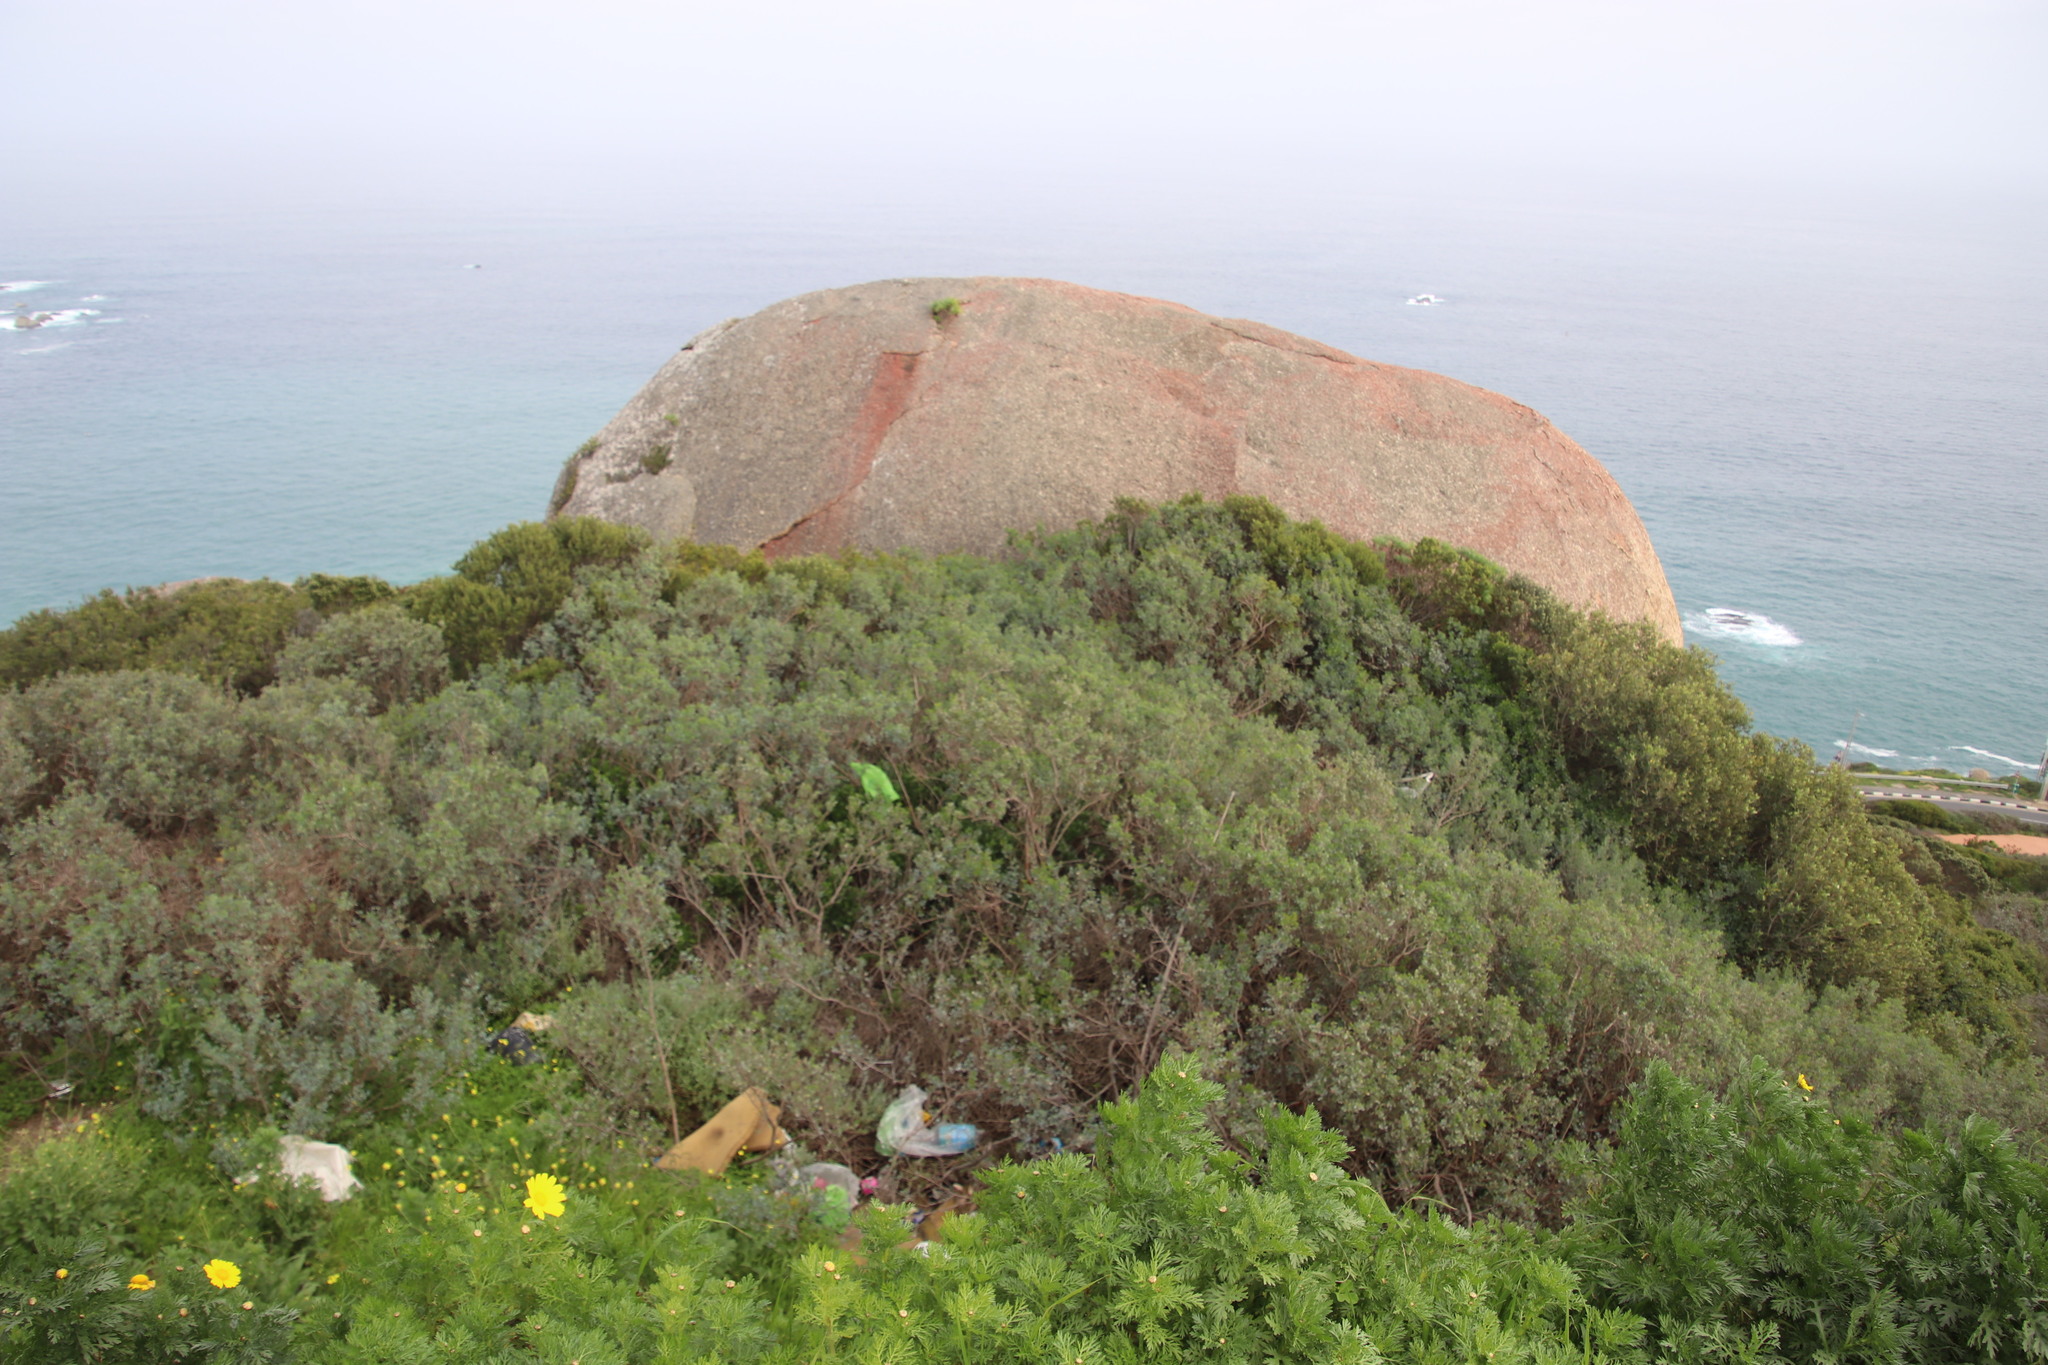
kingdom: Plantae
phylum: Tracheophyta
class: Magnoliopsida
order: Sapindales
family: Anacardiaceae
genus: Searsia
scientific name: Searsia glauca
